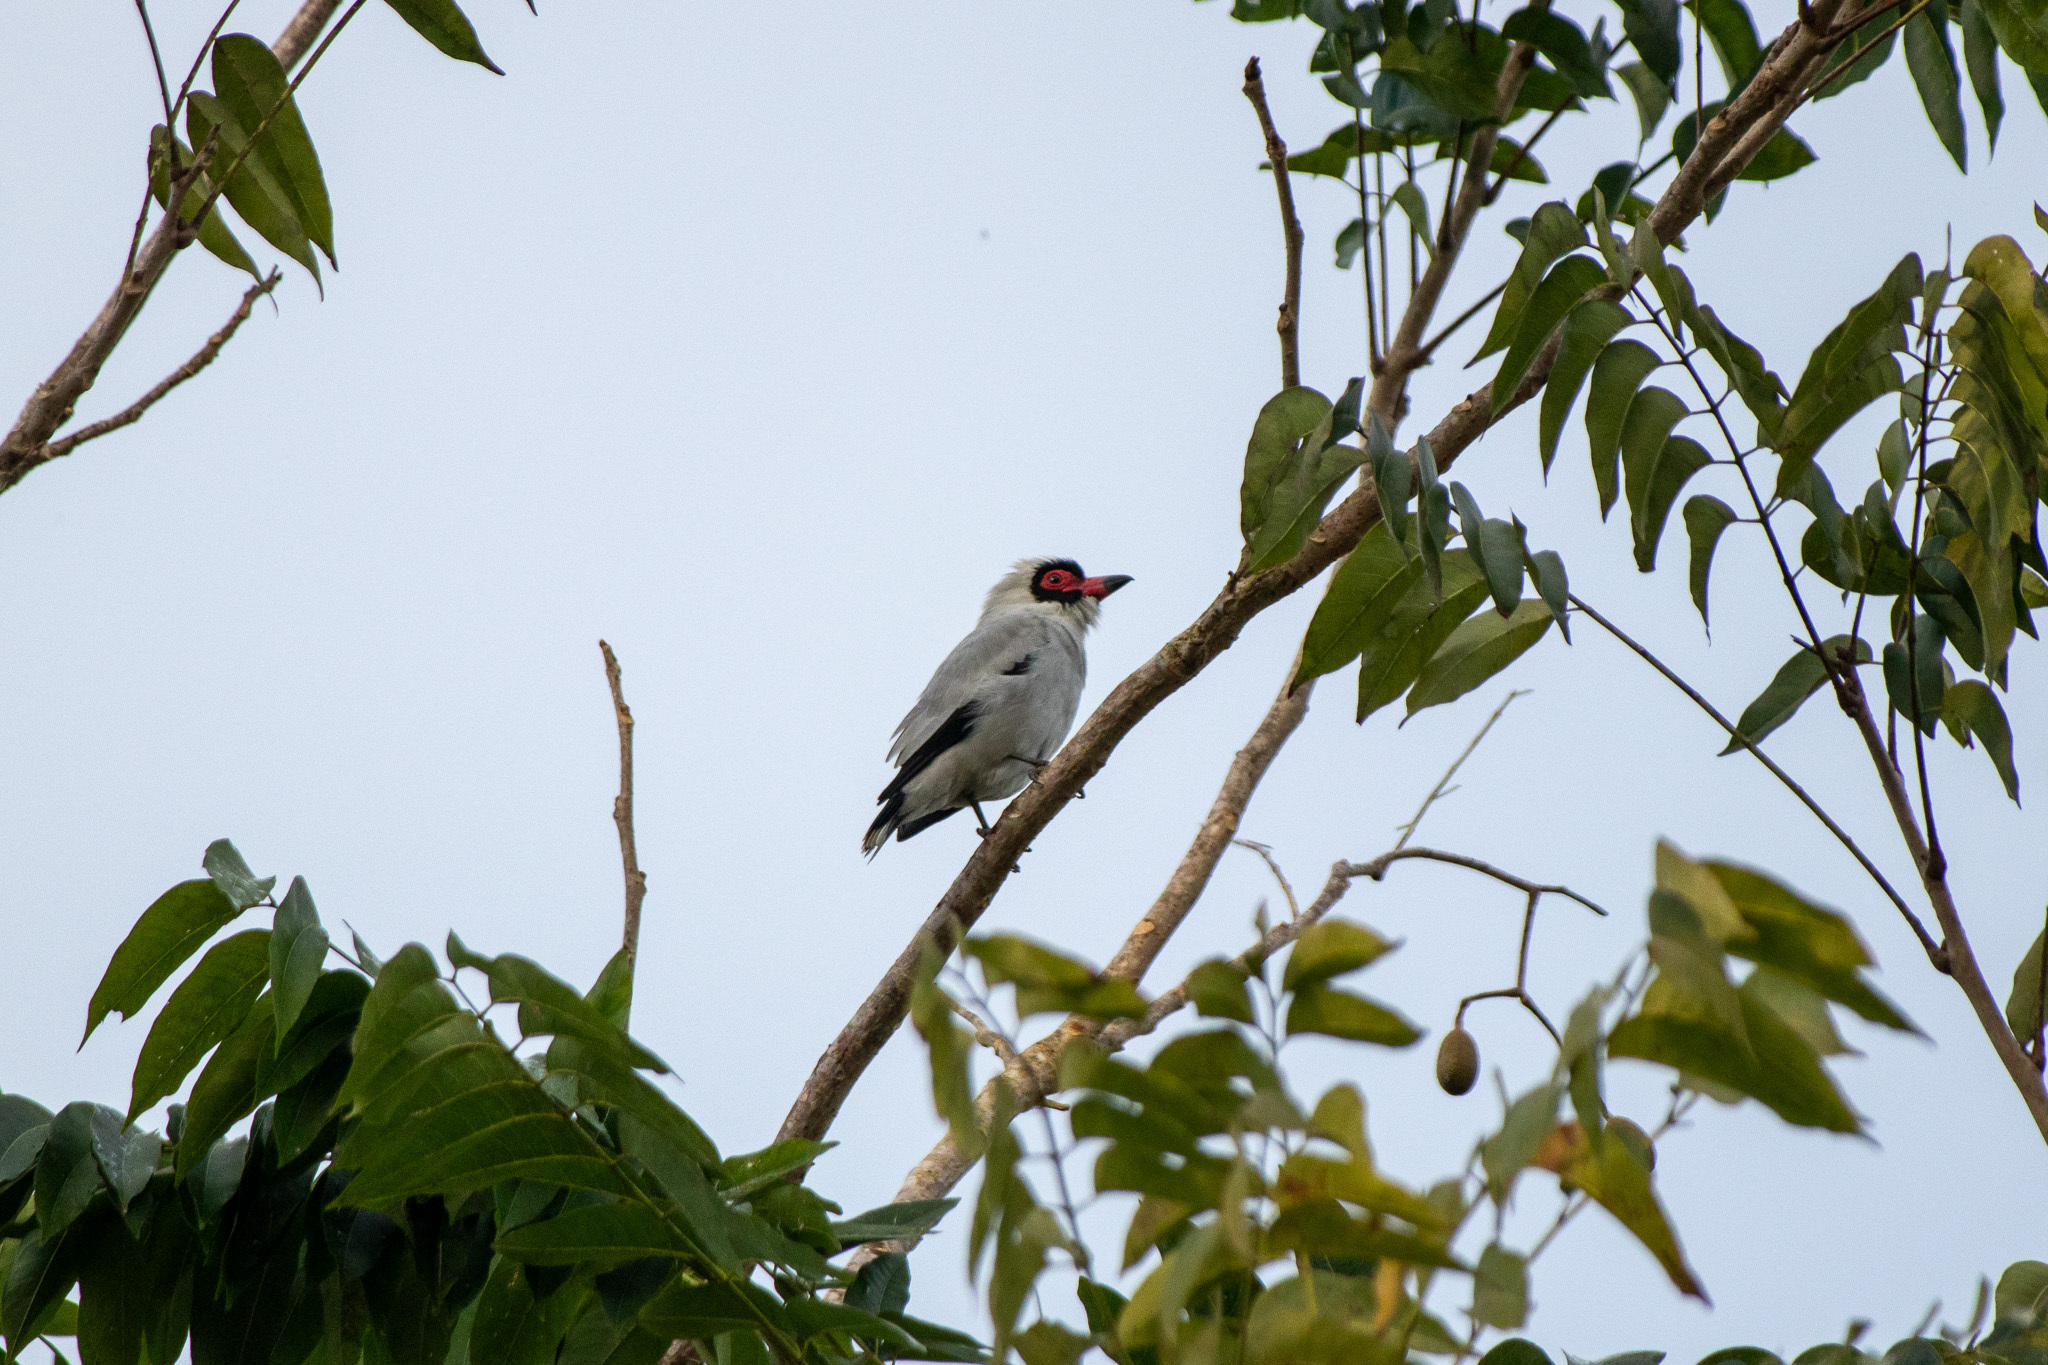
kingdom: Animalia
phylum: Chordata
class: Aves
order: Passeriformes
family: Cotingidae
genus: Tityra
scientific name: Tityra semifasciata
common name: Masked tityra
